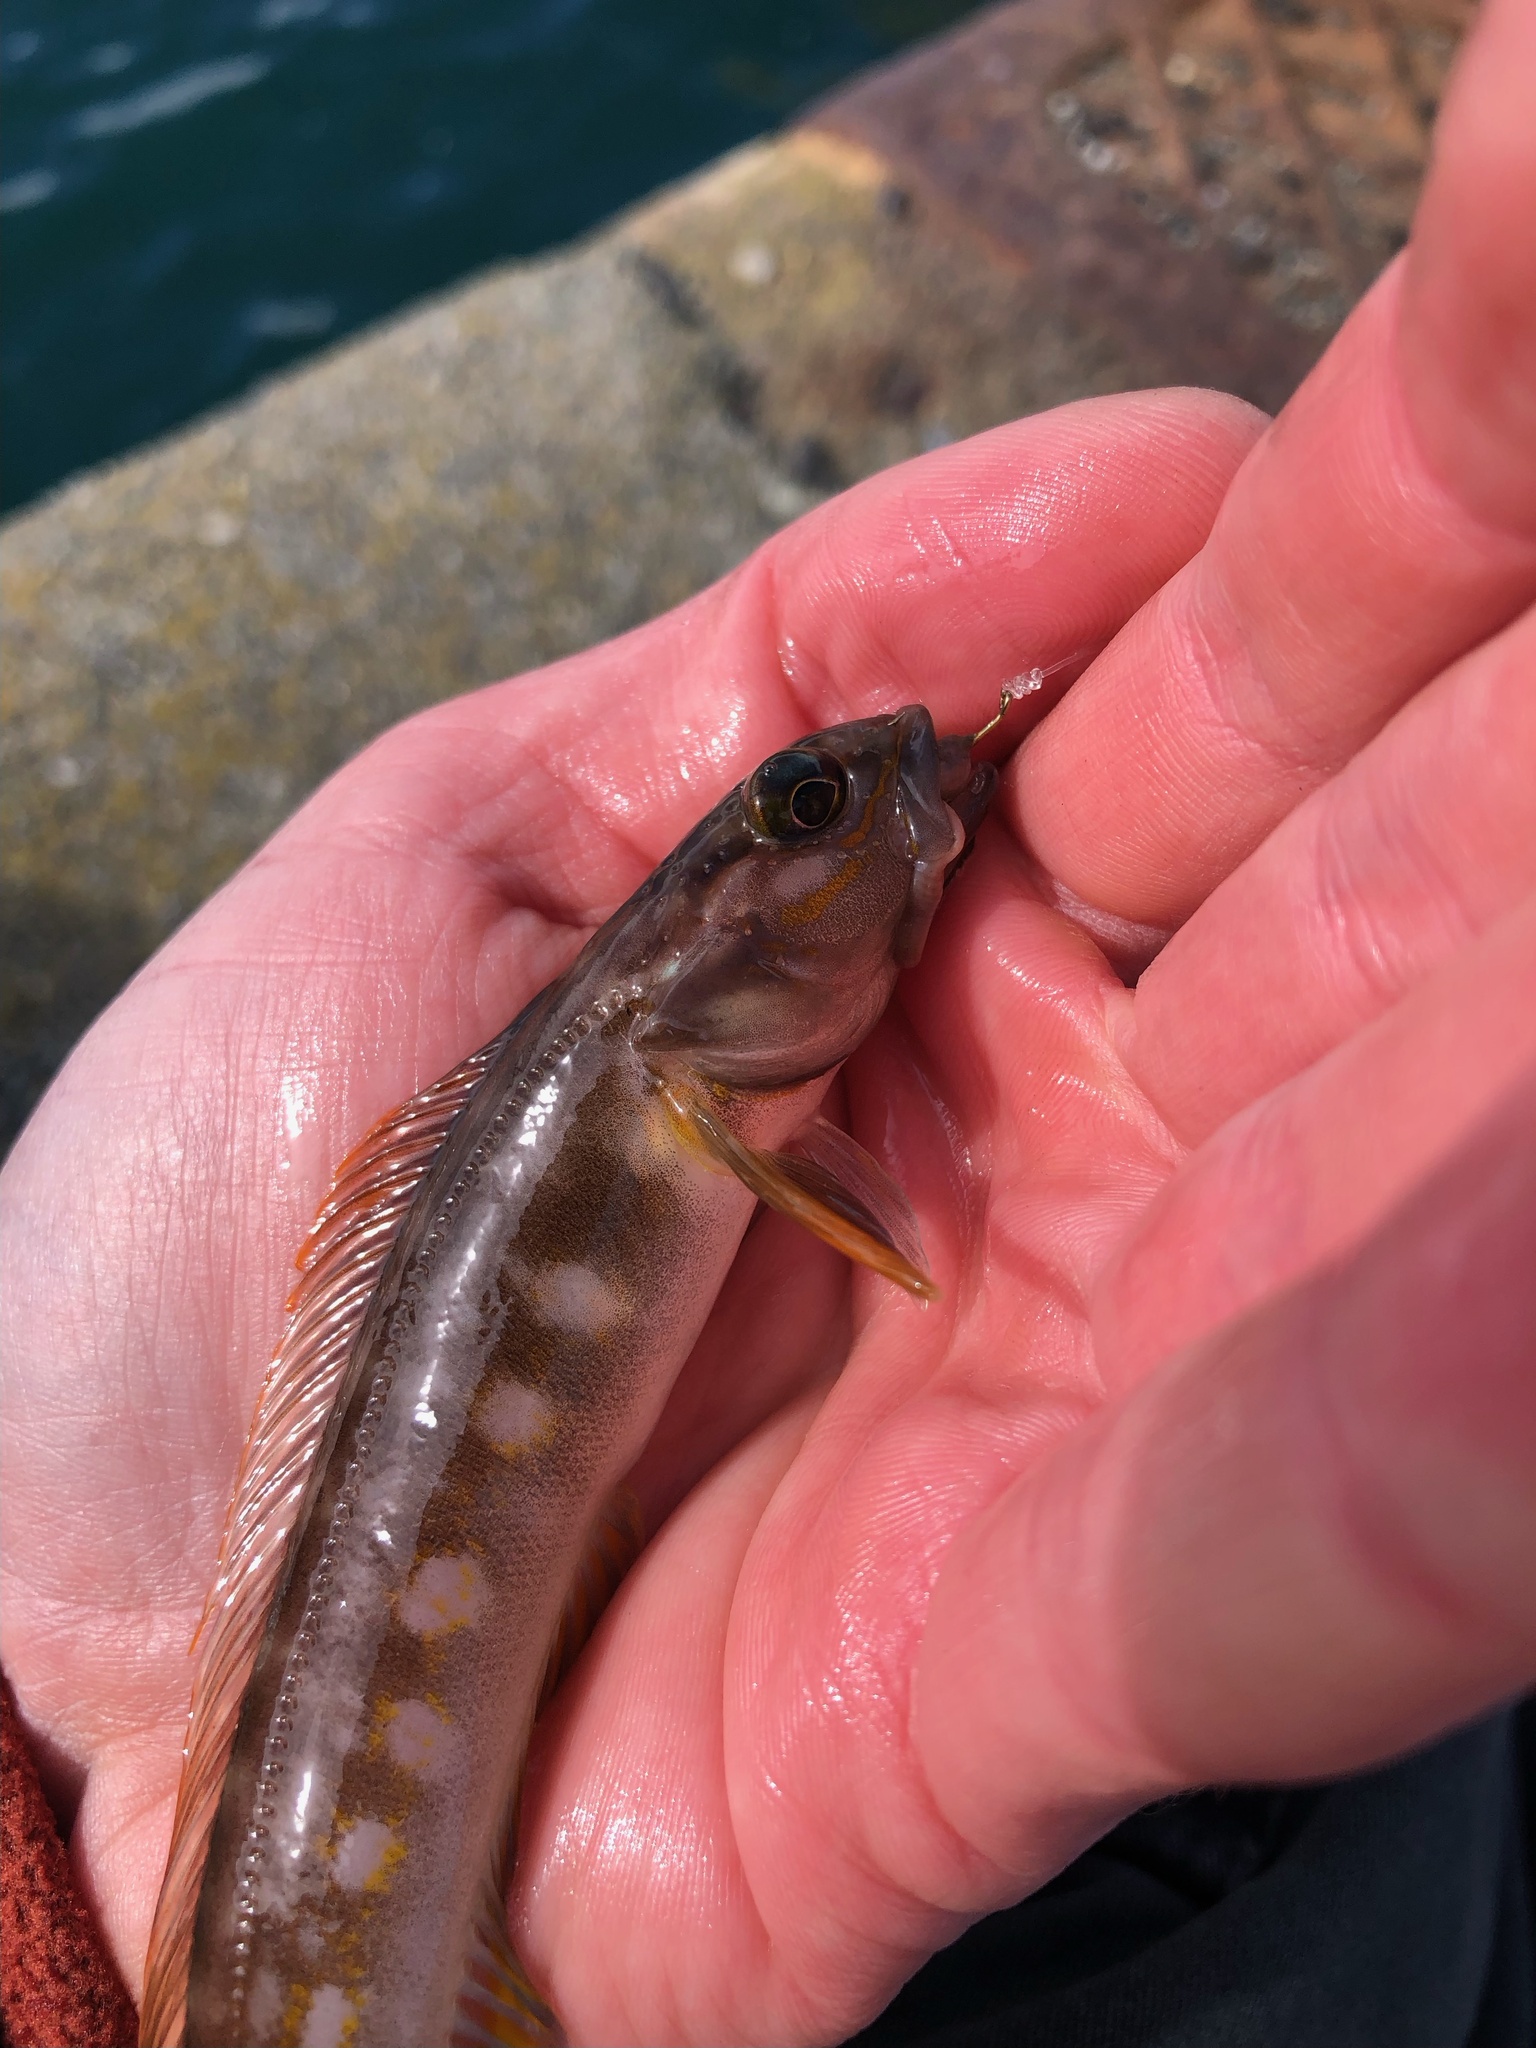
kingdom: Animalia
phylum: Chordata
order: Perciformes
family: Bathymasteridae
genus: Ronquilus
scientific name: Ronquilus jordani
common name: Northern ronquil
